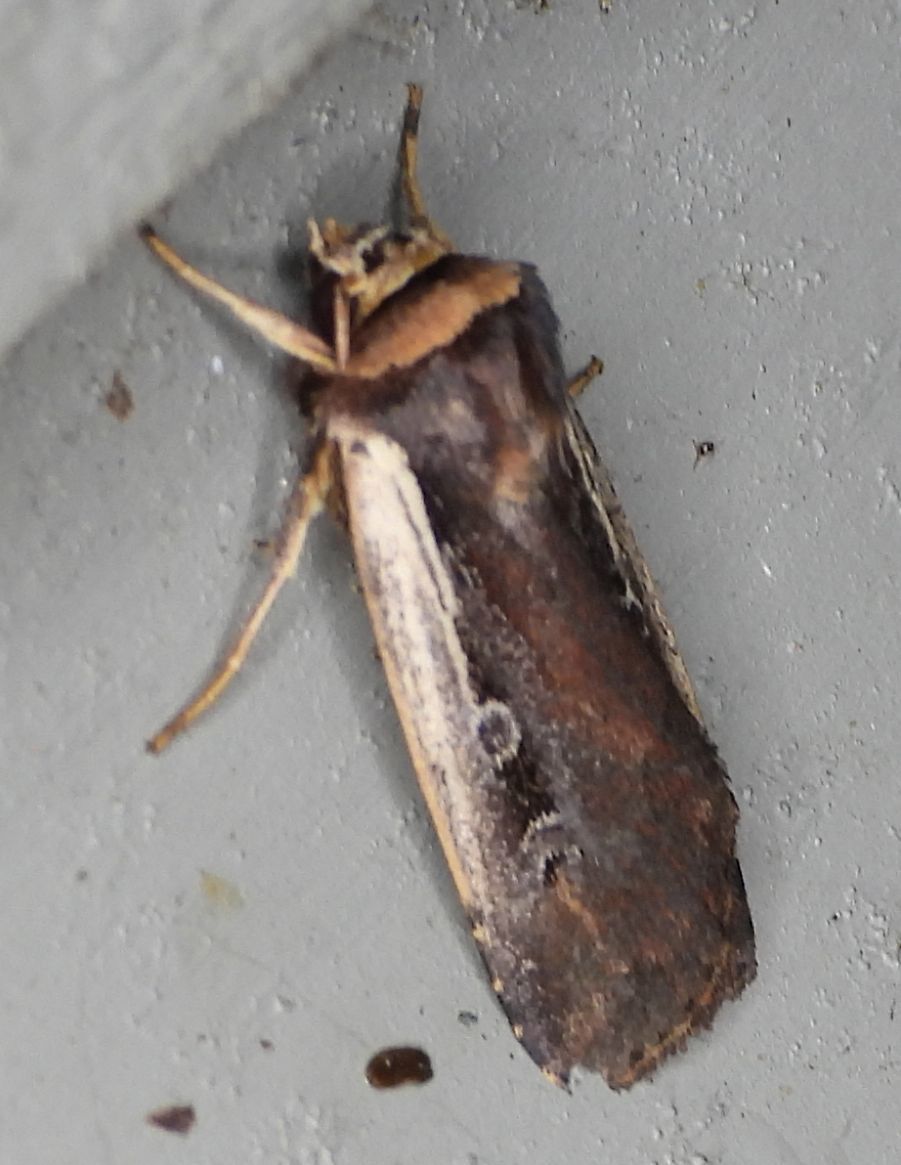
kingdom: Animalia
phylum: Arthropoda
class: Insecta
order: Lepidoptera
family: Noctuidae
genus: Ochropleura
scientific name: Ochropleura implecta
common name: Flame-shouldered dart
